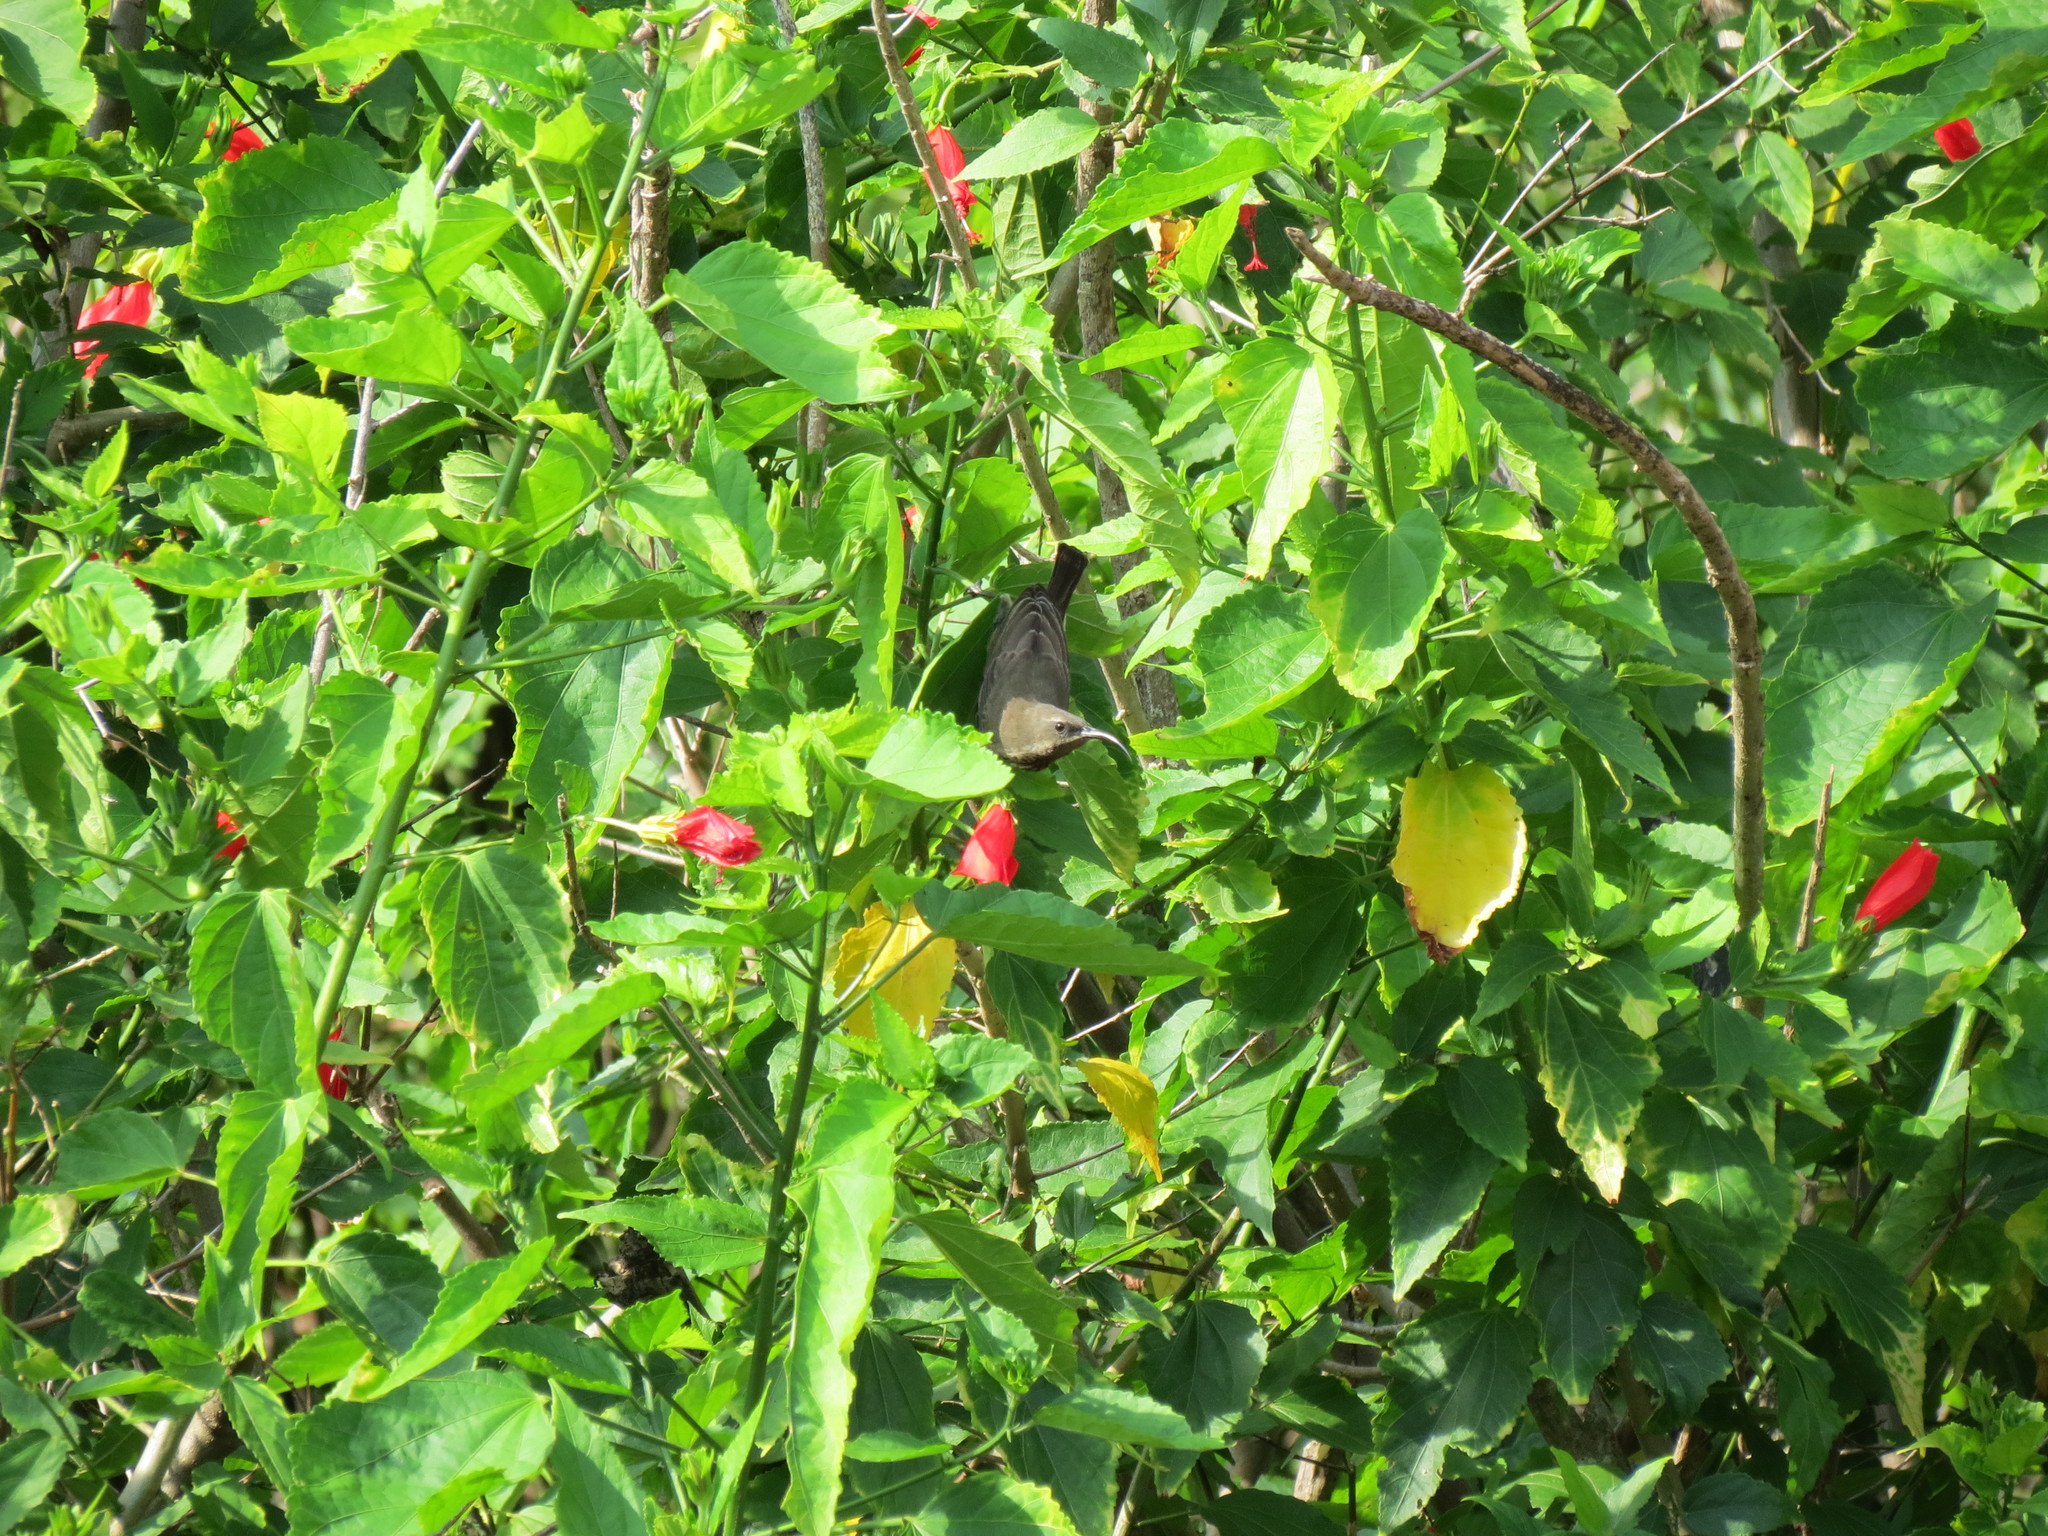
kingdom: Animalia
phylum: Chordata
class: Aves
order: Passeriformes
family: Nectariniidae
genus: Chalcomitra
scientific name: Chalcomitra amethystina
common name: Amethyst sunbird
